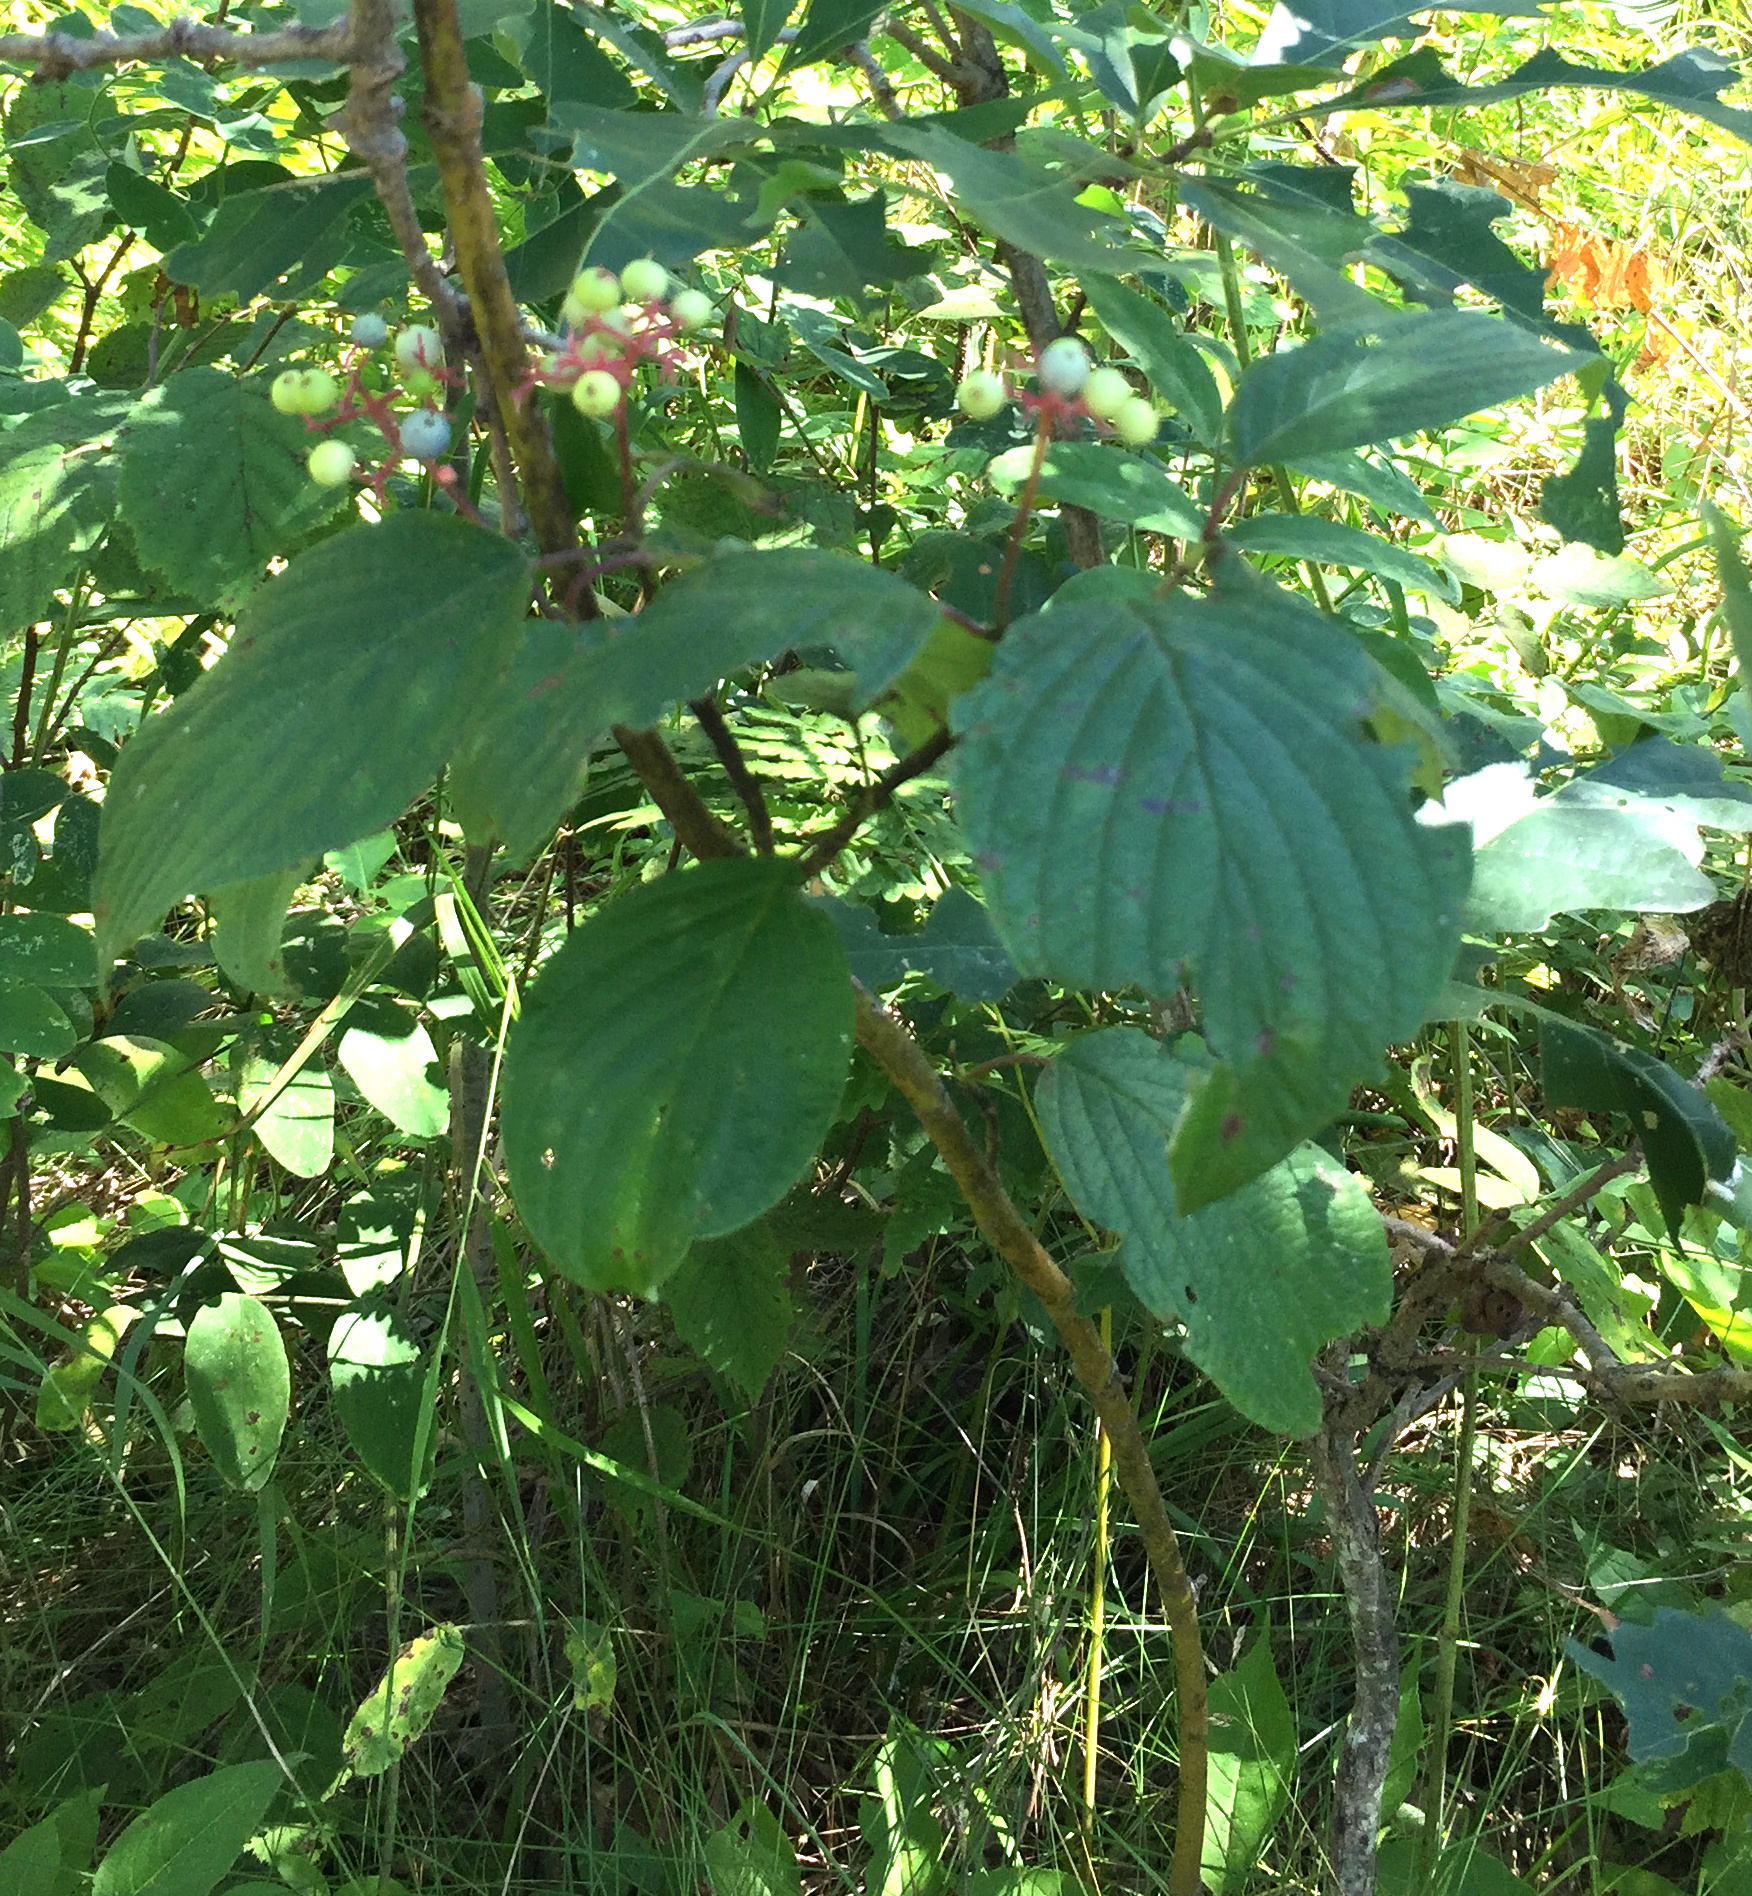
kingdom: Plantae
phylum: Tracheophyta
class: Magnoliopsida
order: Cornales
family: Cornaceae
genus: Cornus
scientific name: Cornus rugosa
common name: Round-leaf dogwood
